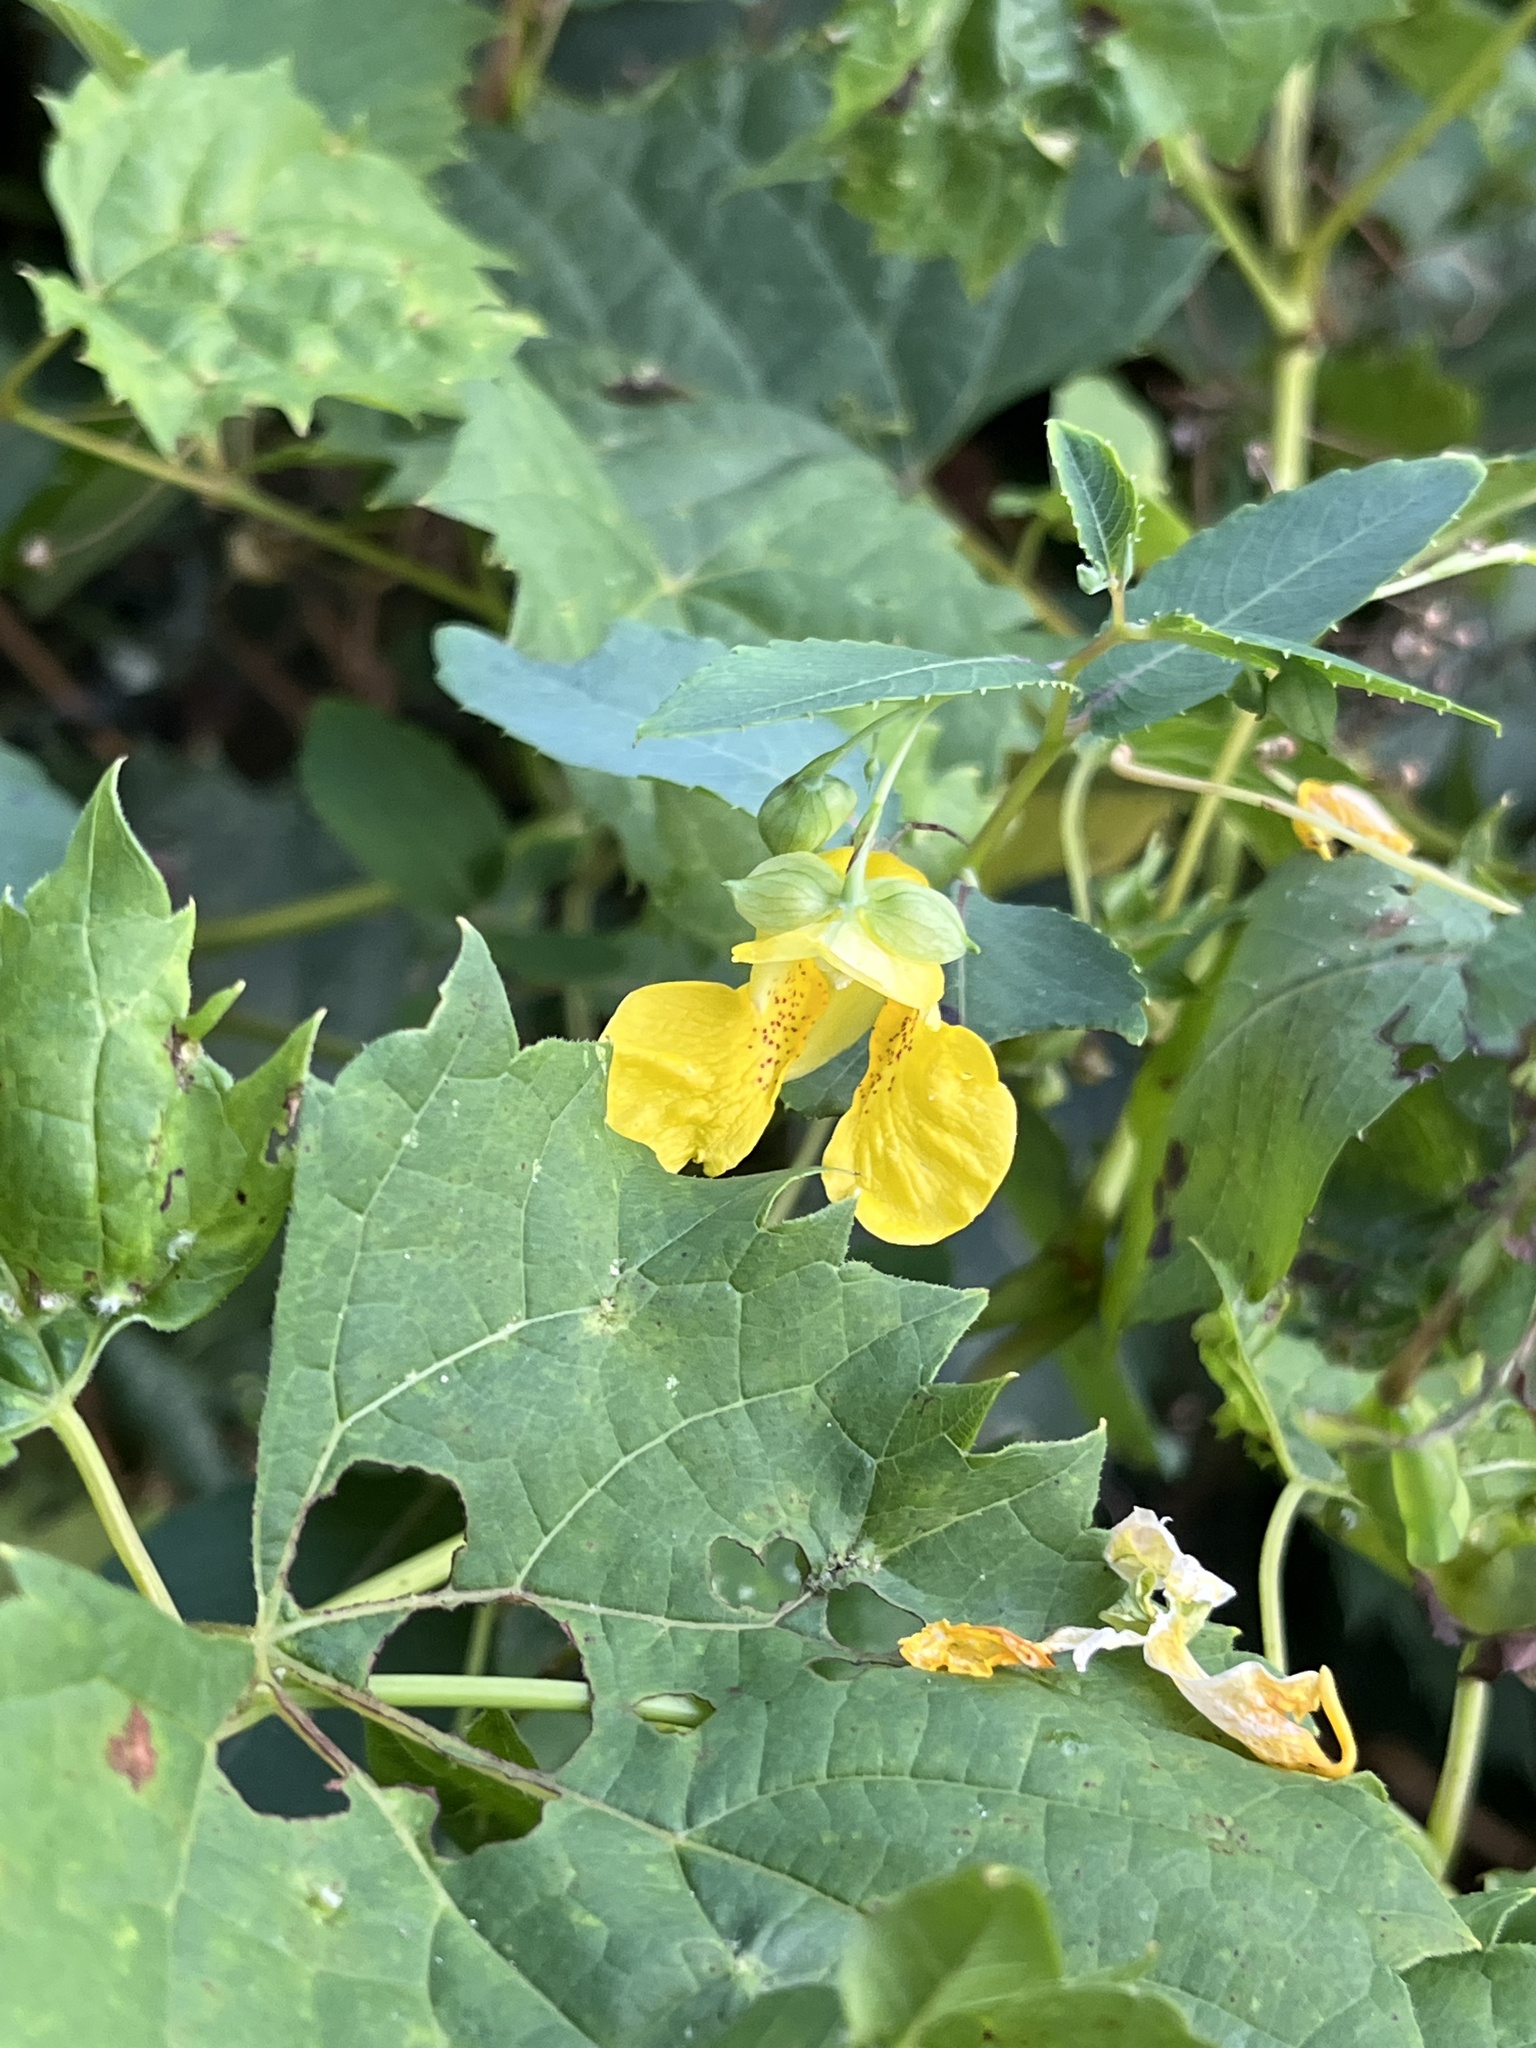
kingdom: Plantae
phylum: Tracheophyta
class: Magnoliopsida
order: Ericales
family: Balsaminaceae
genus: Impatiens
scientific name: Impatiens pallida
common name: Pale snapweed
